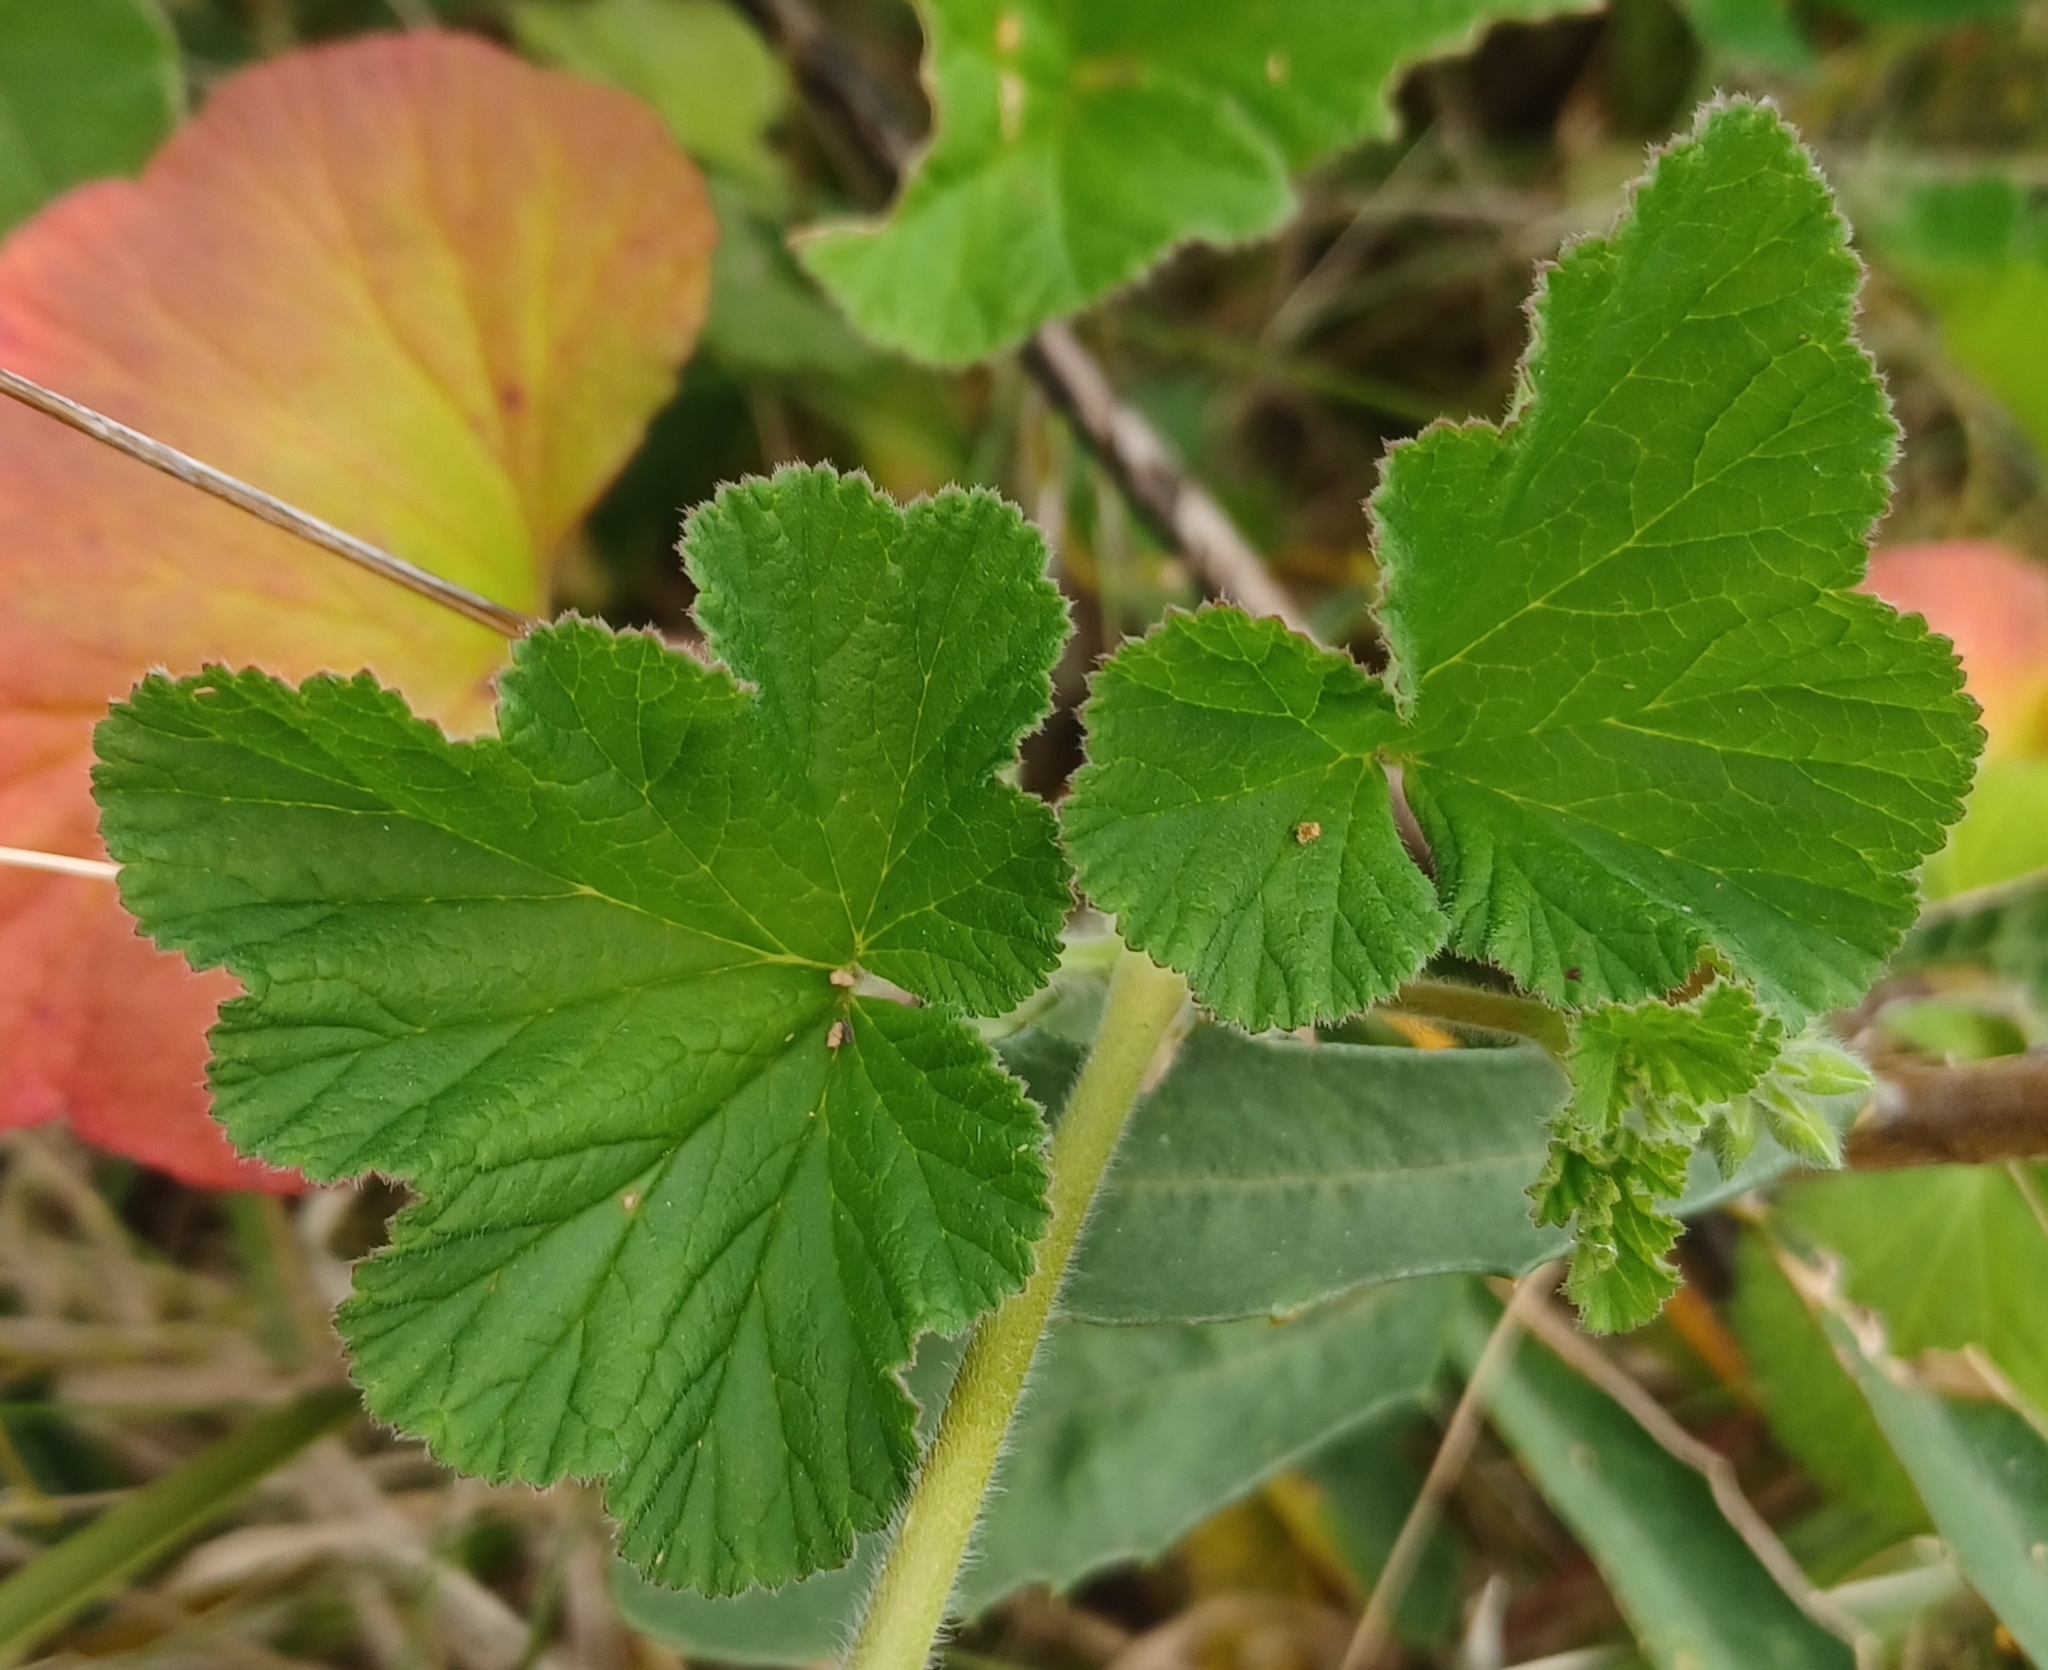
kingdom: Plantae
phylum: Tracheophyta
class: Magnoliopsida
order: Geraniales
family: Geraniaceae
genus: Pelargonium
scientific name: Pelargonium australe
